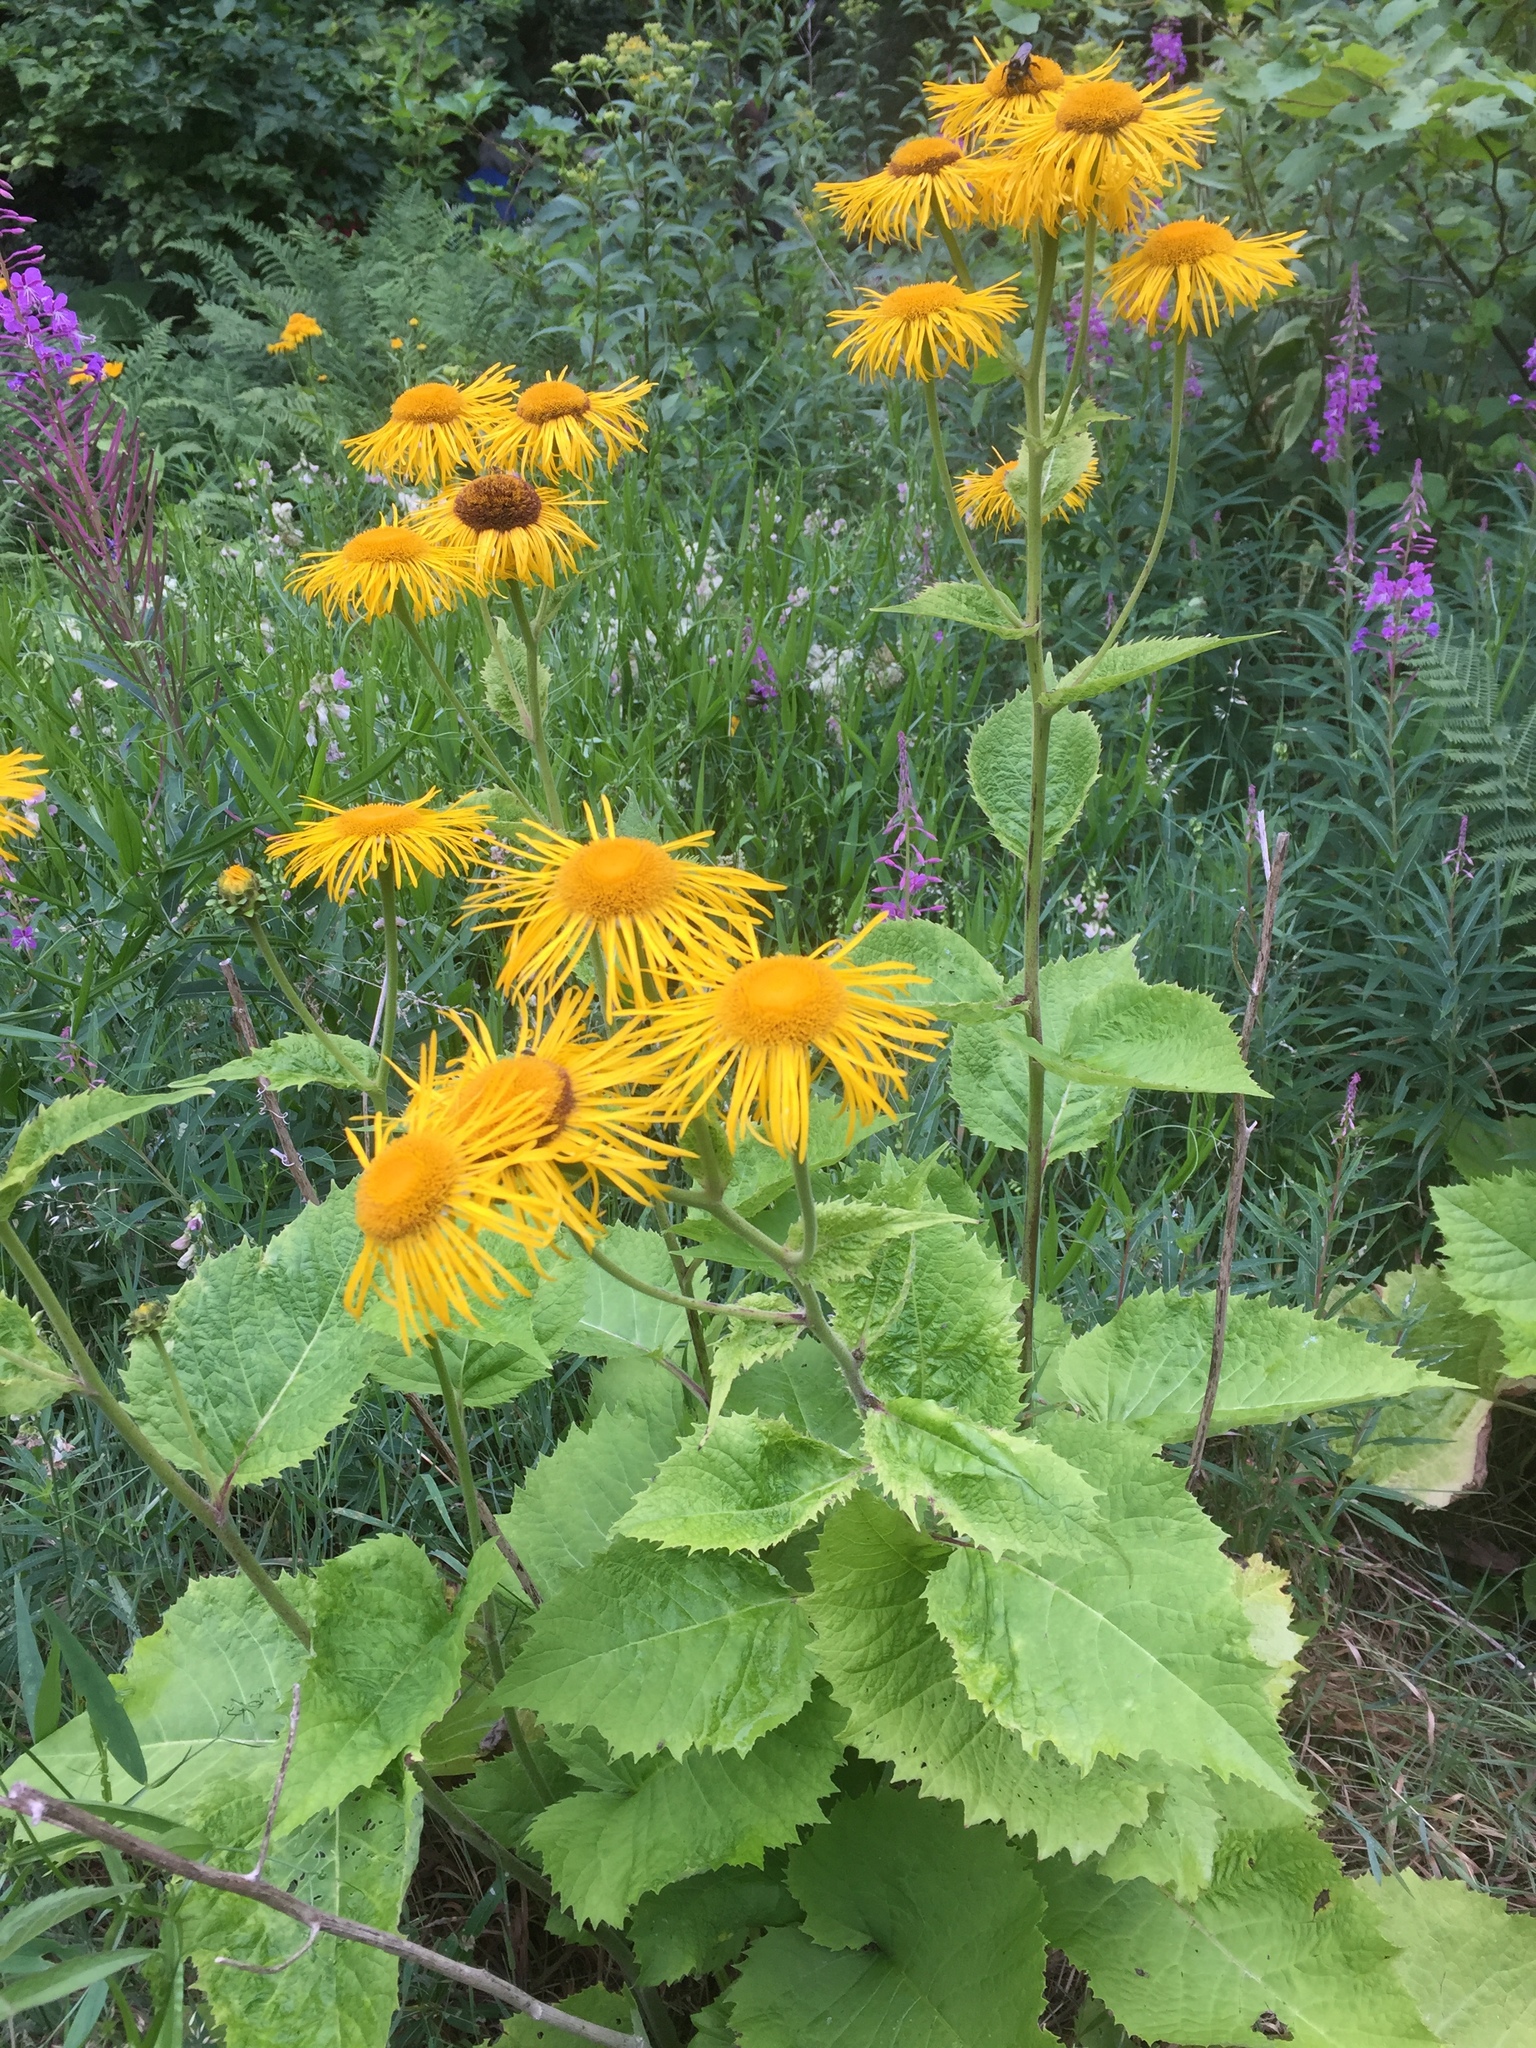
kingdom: Plantae
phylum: Tracheophyta
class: Magnoliopsida
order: Asterales
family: Asteraceae
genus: Telekia
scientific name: Telekia speciosa
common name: Yellow oxeye
